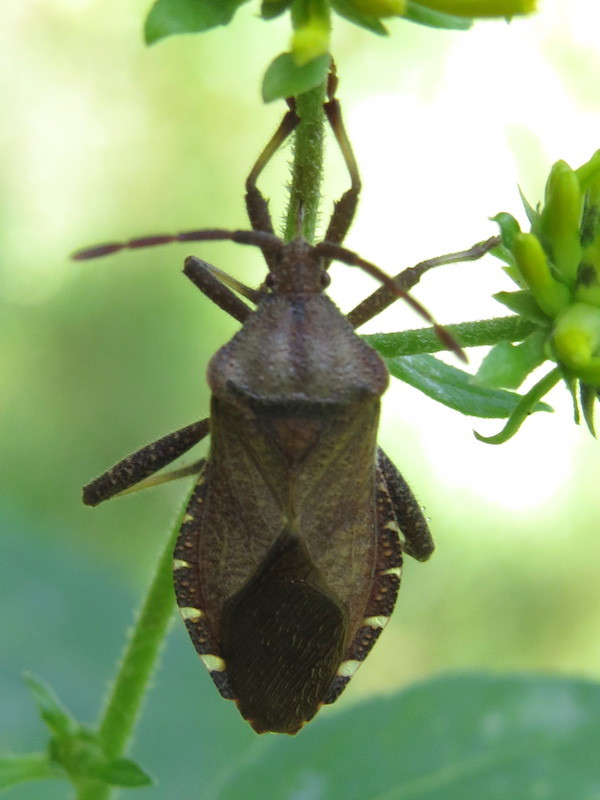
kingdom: Animalia
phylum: Arthropoda
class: Insecta
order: Hemiptera
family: Coreidae
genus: Piezogaster
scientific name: Piezogaster calcarator
